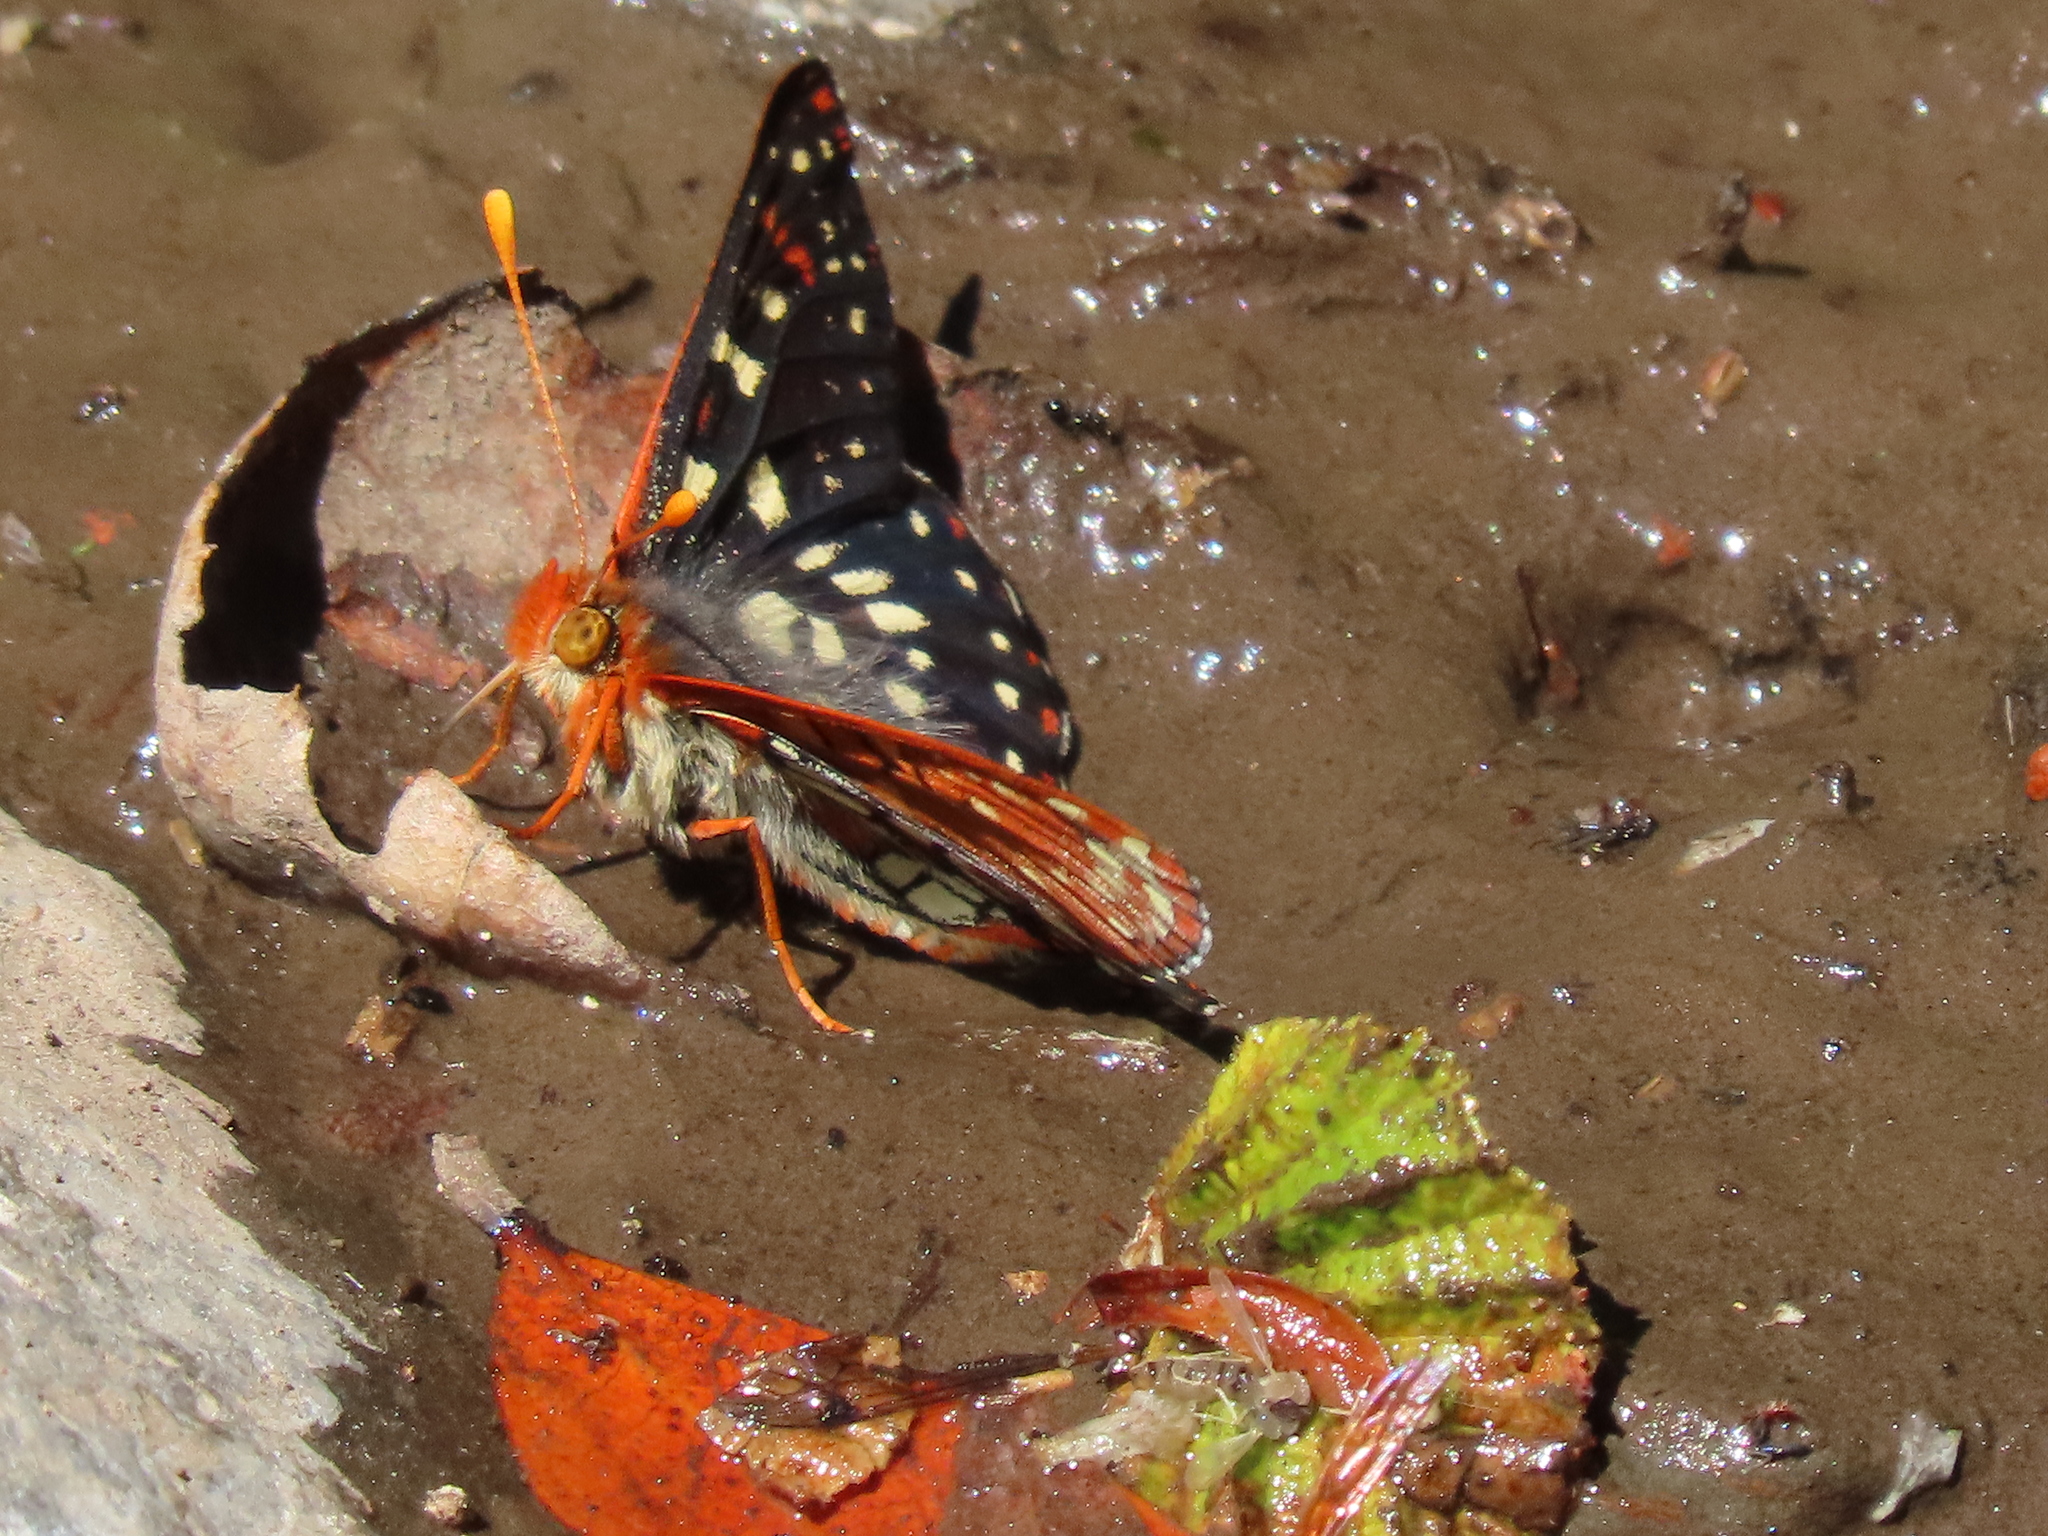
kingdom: Animalia
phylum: Arthropoda
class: Insecta
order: Lepidoptera
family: Nymphalidae
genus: Occidryas
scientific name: Occidryas chalcedona
